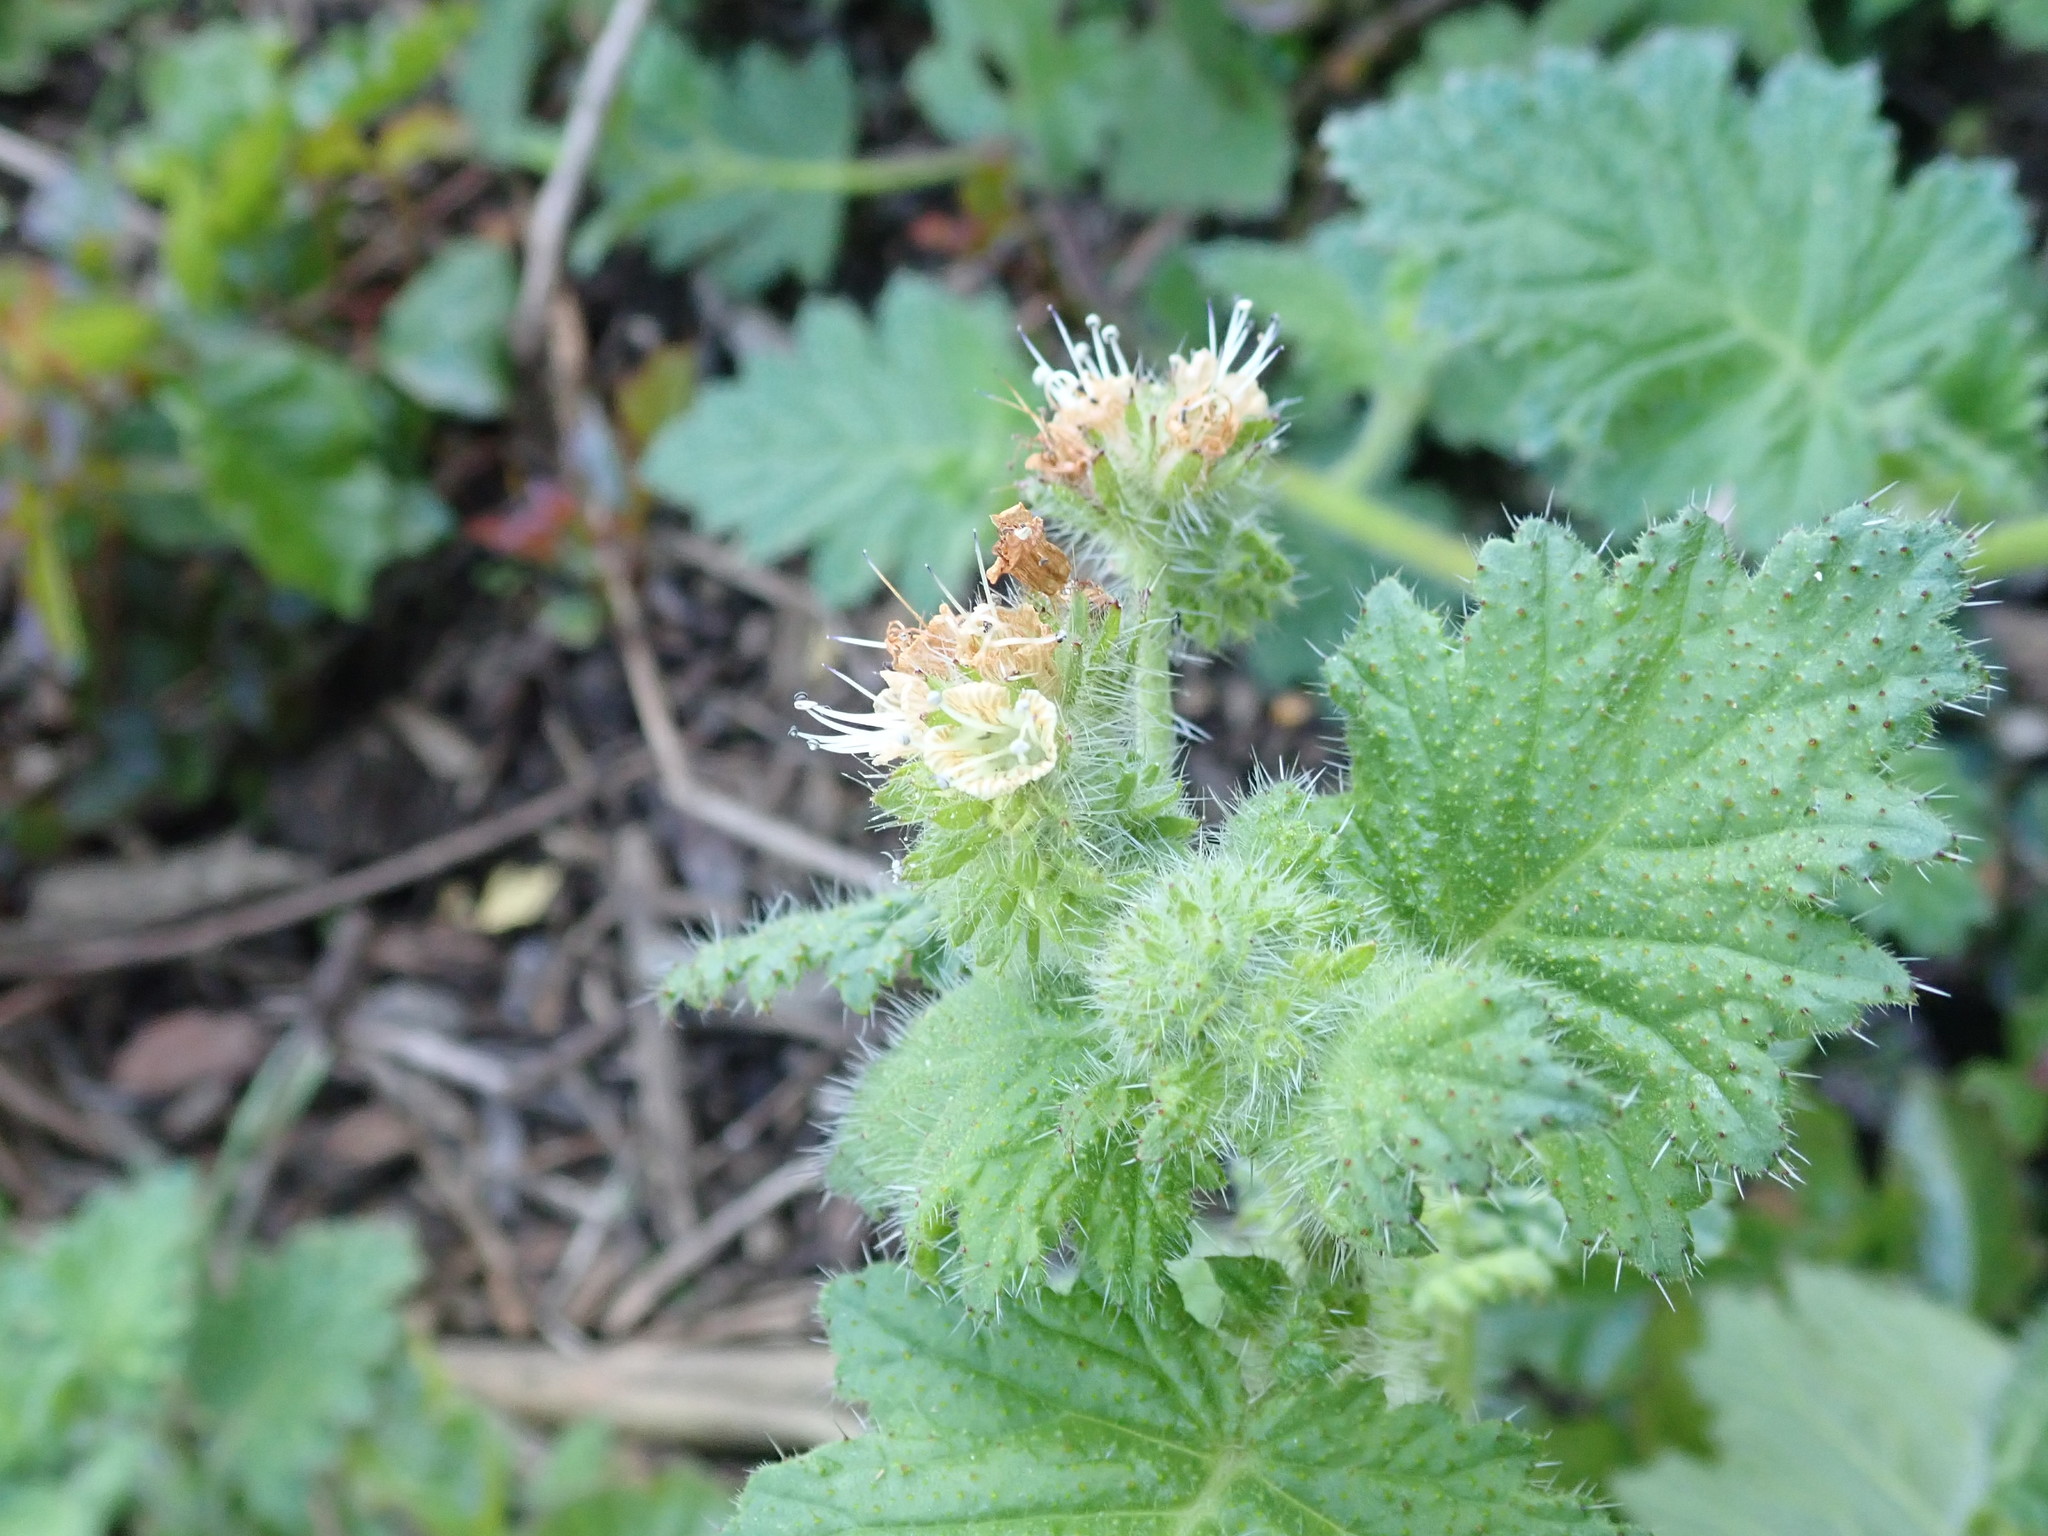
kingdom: Plantae
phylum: Tracheophyta
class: Magnoliopsida
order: Boraginales
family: Hydrophyllaceae
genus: Phacelia
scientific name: Phacelia malvifolia
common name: Mallow-leaf phacelia
